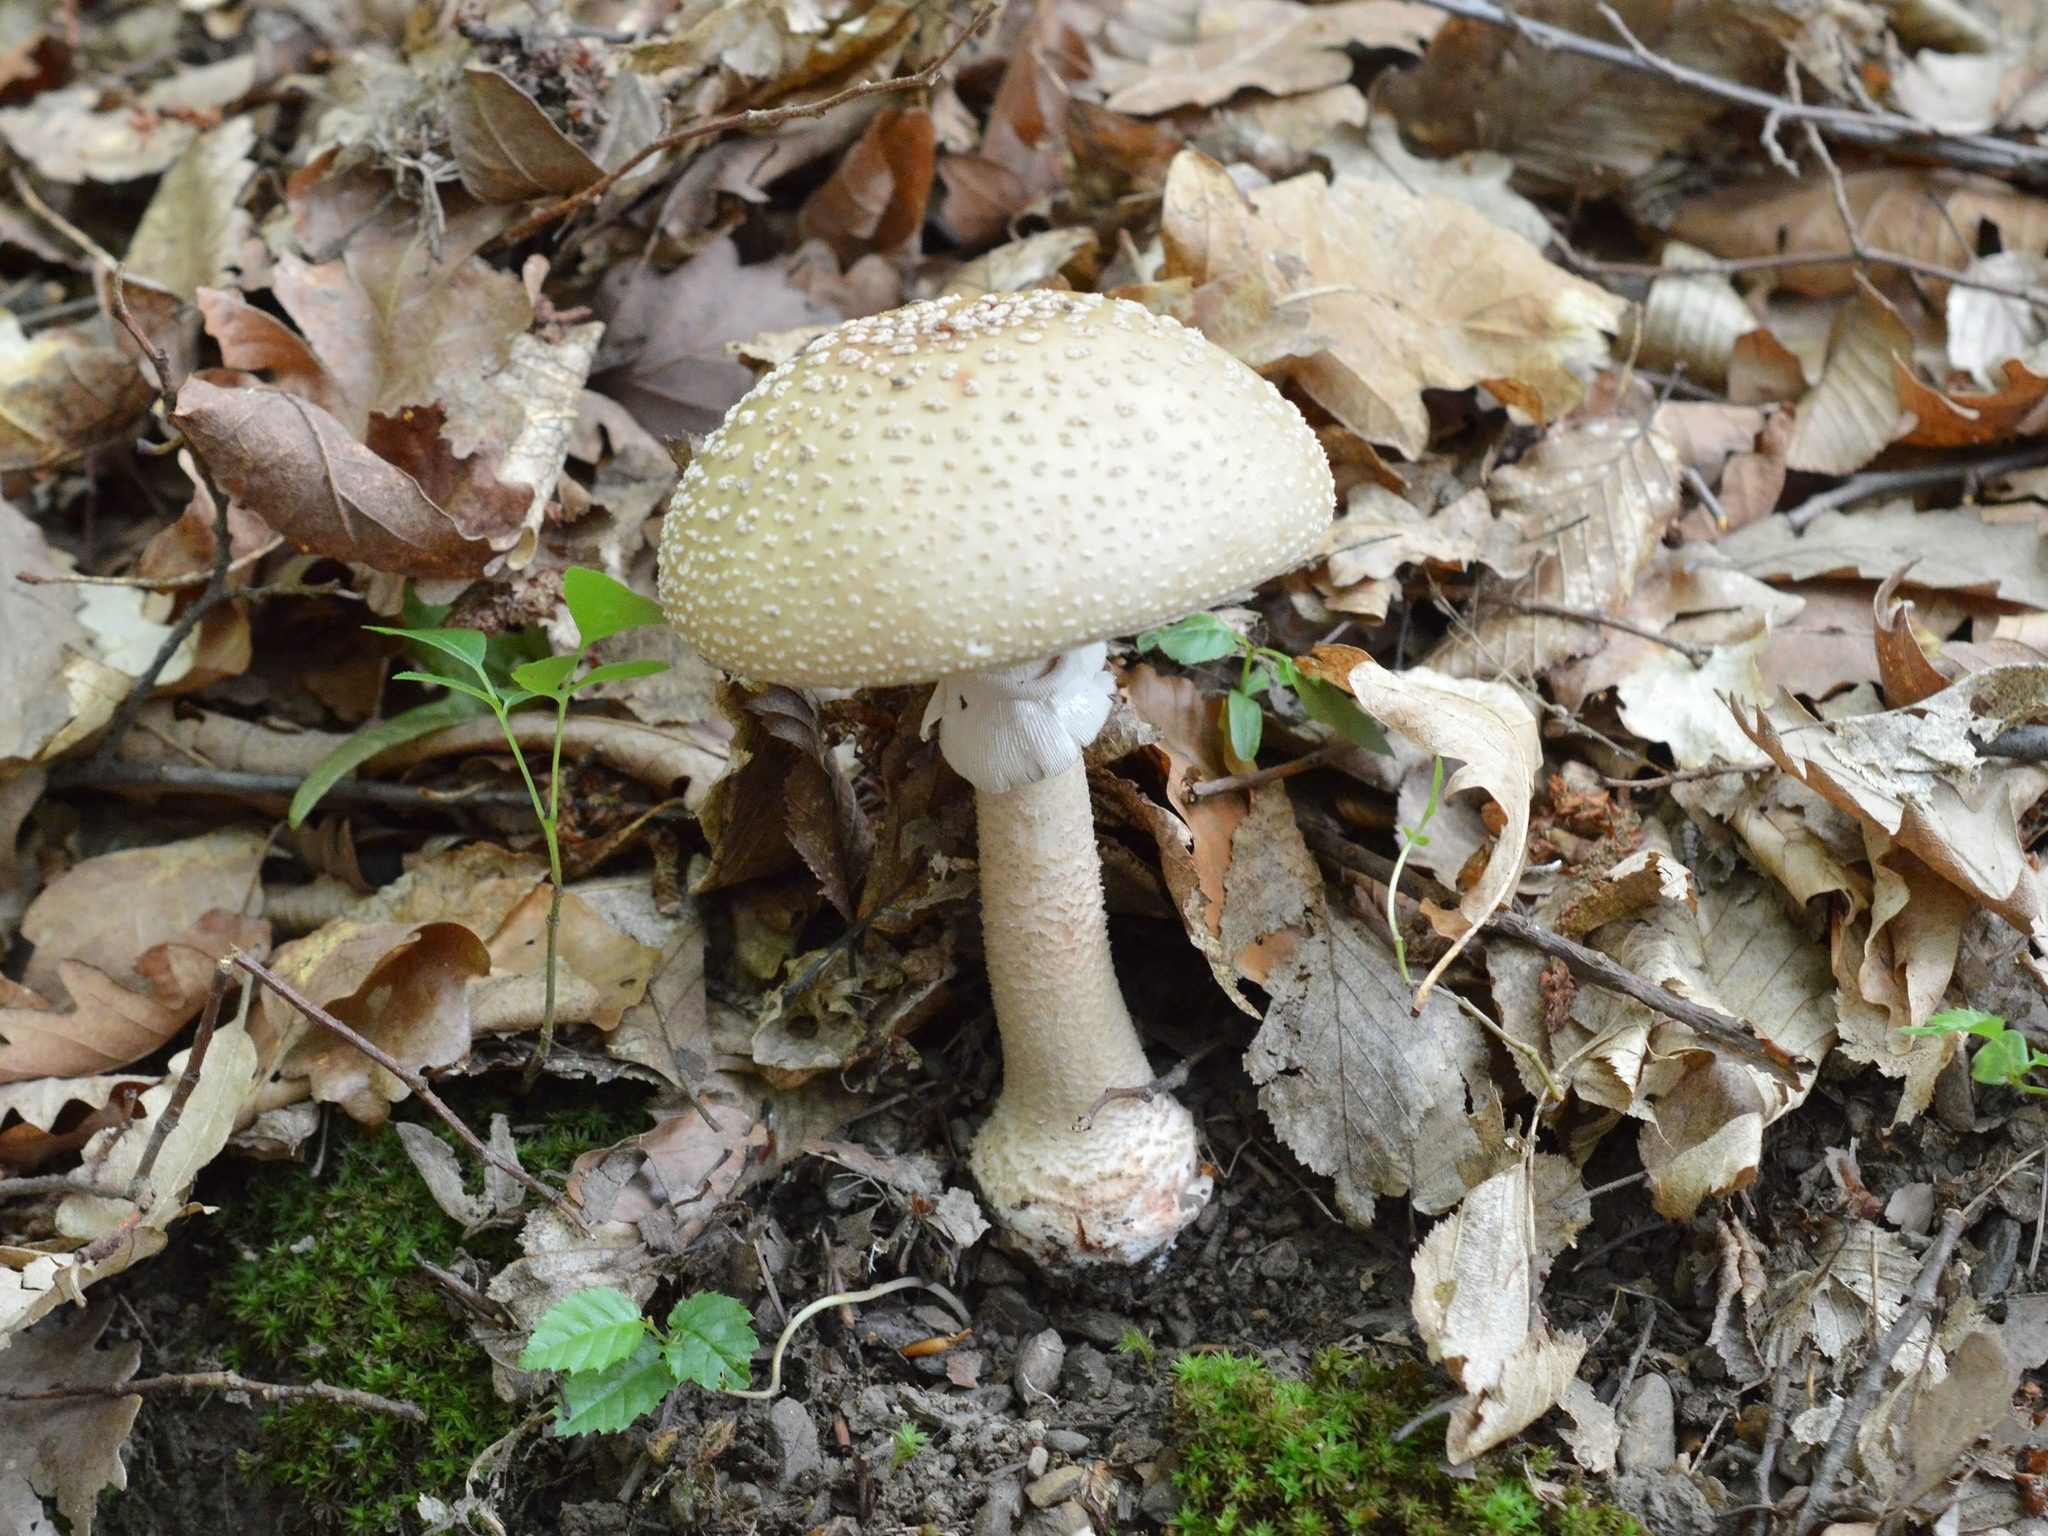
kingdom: Fungi
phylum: Basidiomycota
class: Agaricomycetes
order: Agaricales
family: Amanitaceae
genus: Amanita
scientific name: Amanita rubescens
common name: Blusher
